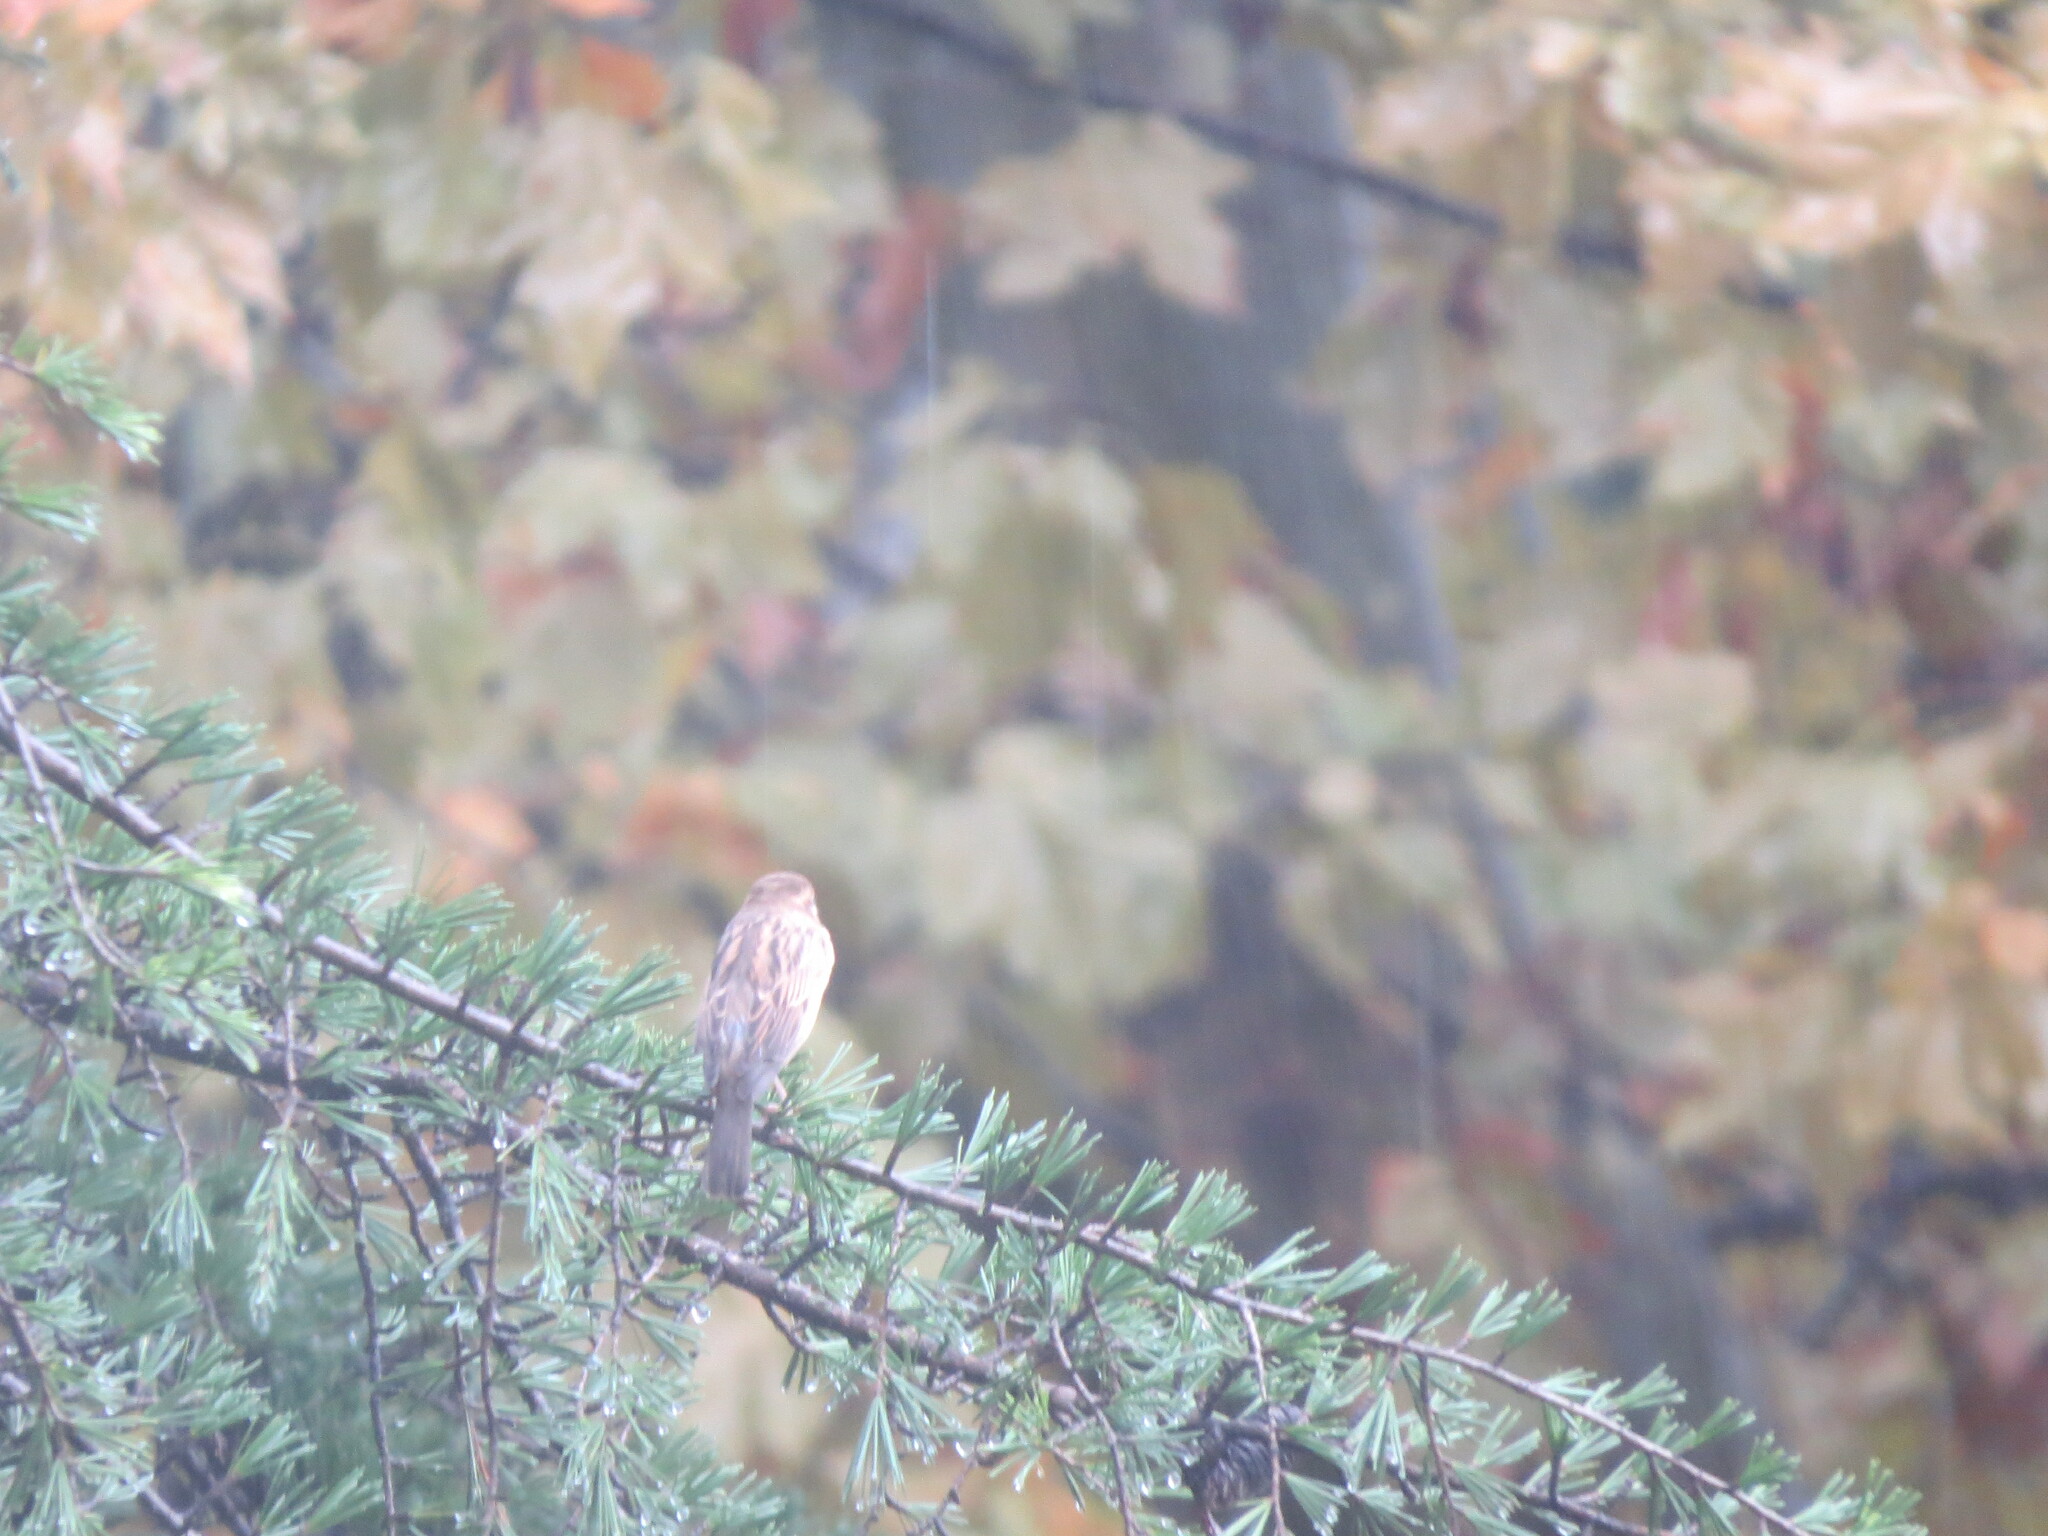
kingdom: Animalia
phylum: Chordata
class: Aves
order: Passeriformes
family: Passeridae
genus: Passer
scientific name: Passer domesticus
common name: House sparrow
